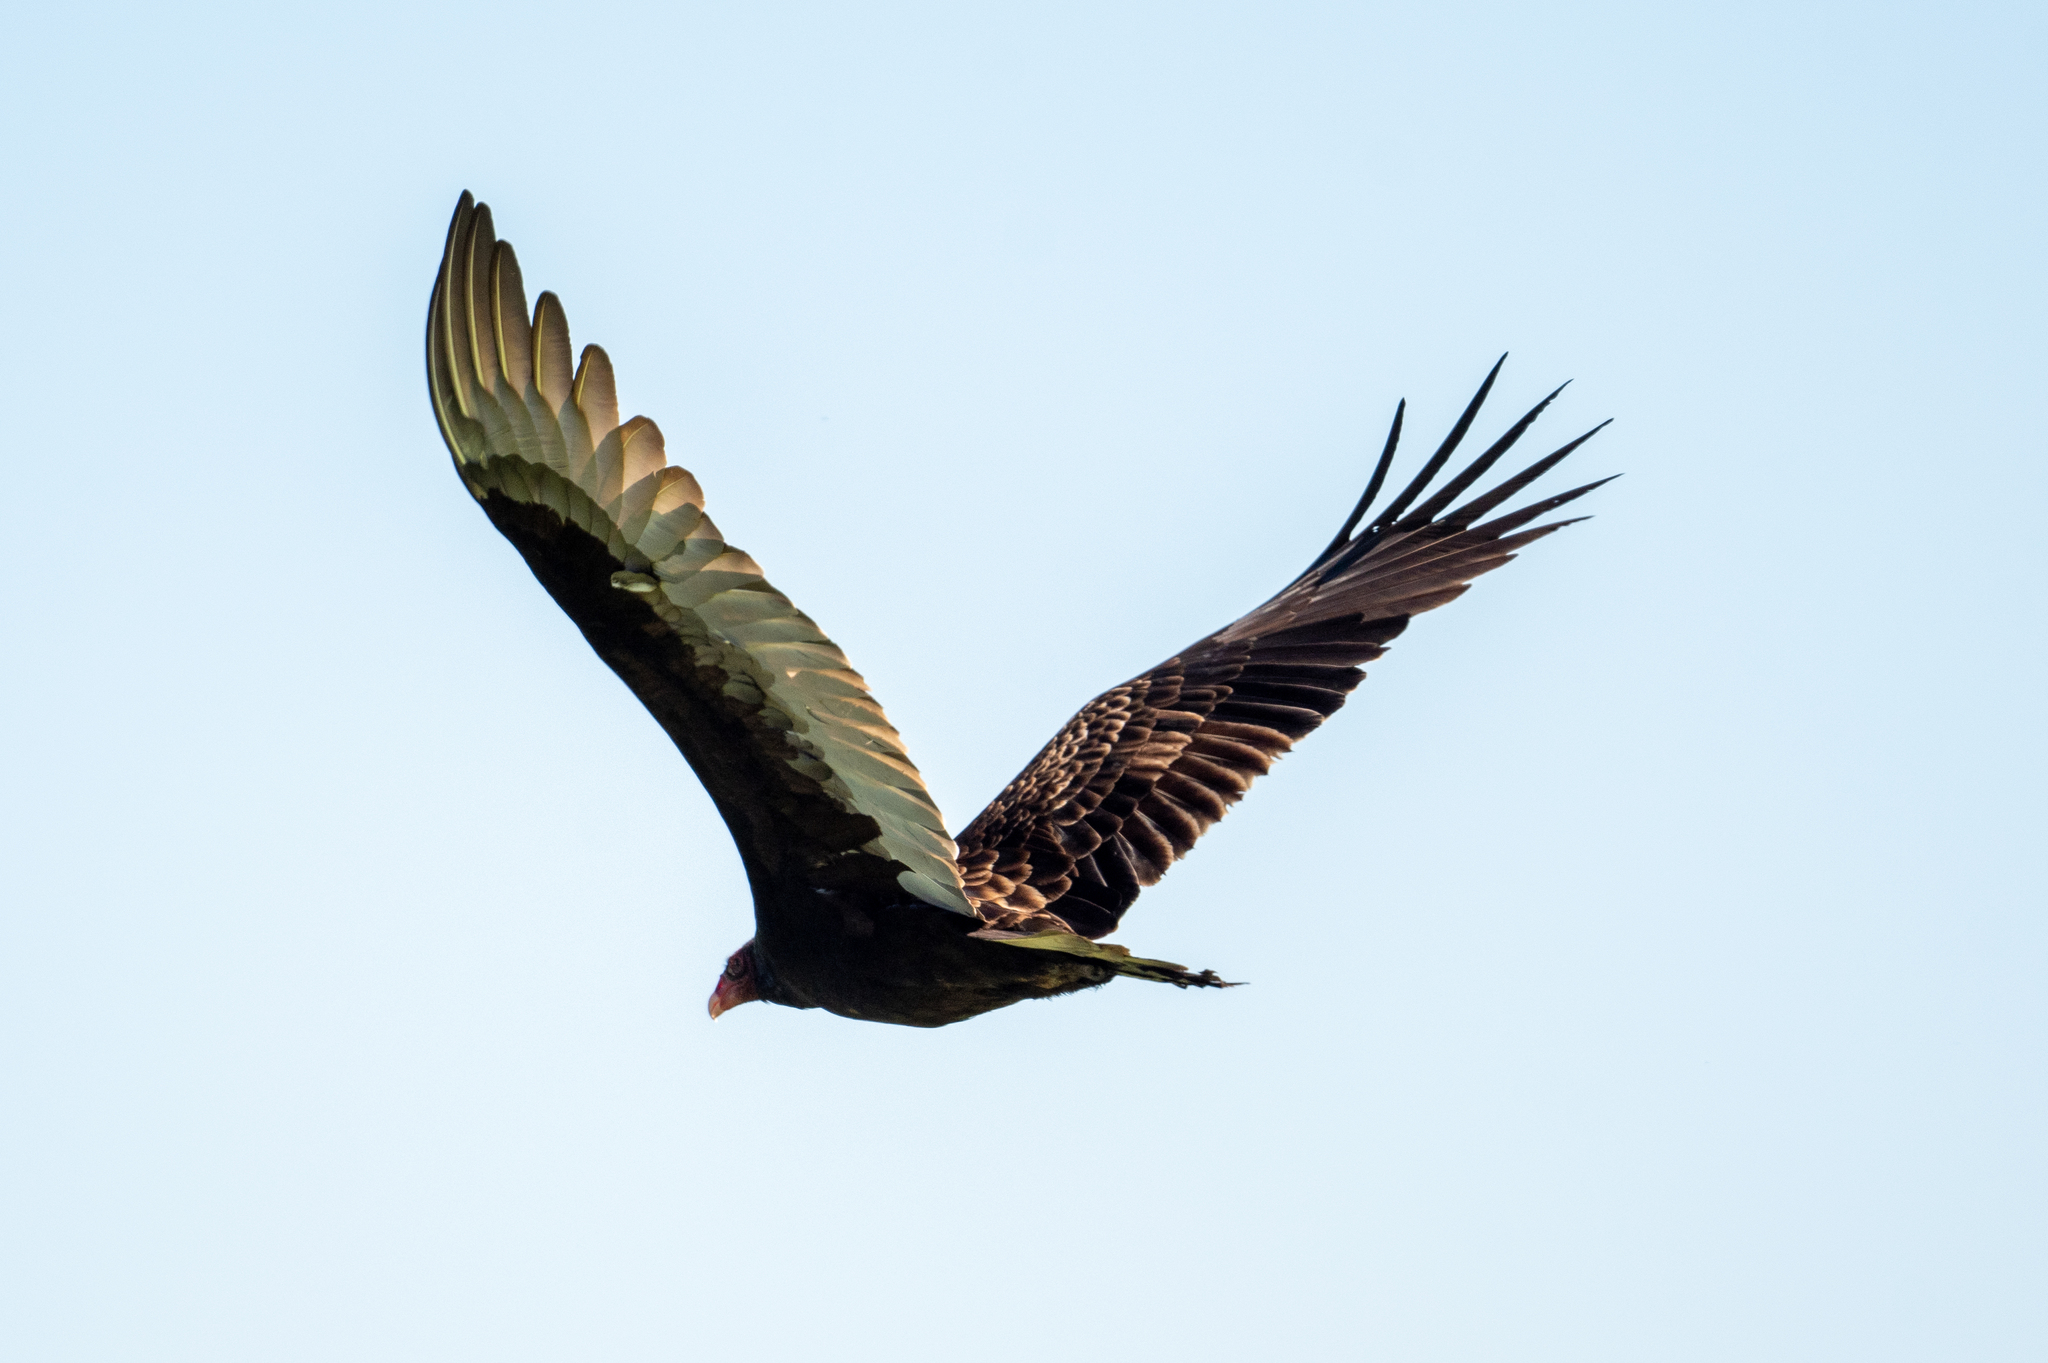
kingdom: Animalia
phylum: Chordata
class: Aves
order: Accipitriformes
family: Cathartidae
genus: Cathartes
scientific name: Cathartes aura
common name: Turkey vulture
